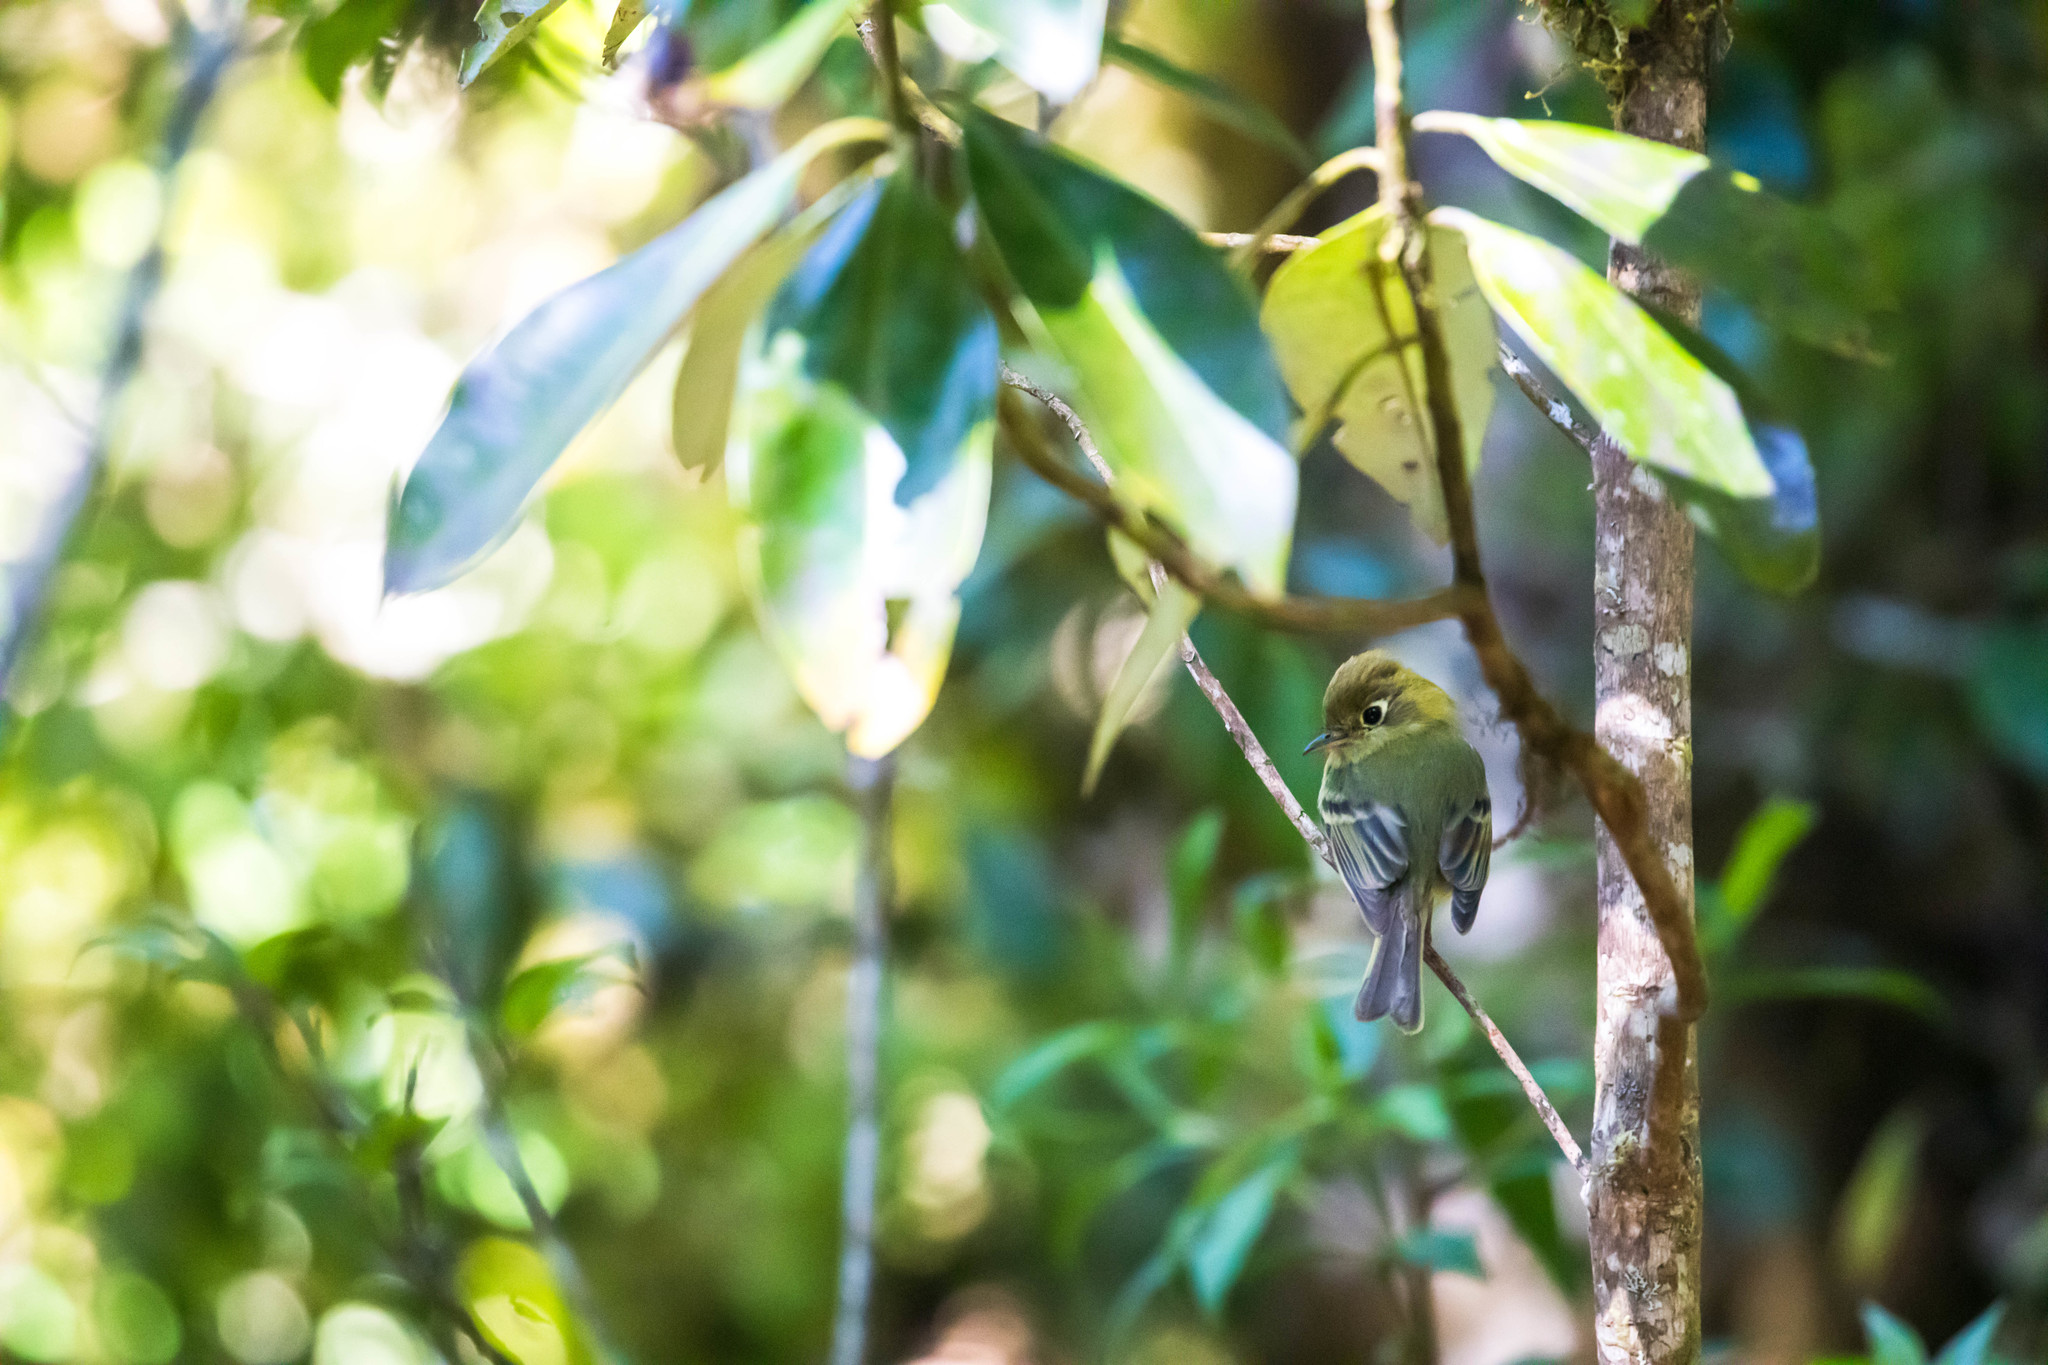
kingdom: Animalia
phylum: Chordata
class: Aves
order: Passeriformes
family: Tyrannidae
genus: Empidonax
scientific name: Empidonax flavescens
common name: Yellowish flycatcher
